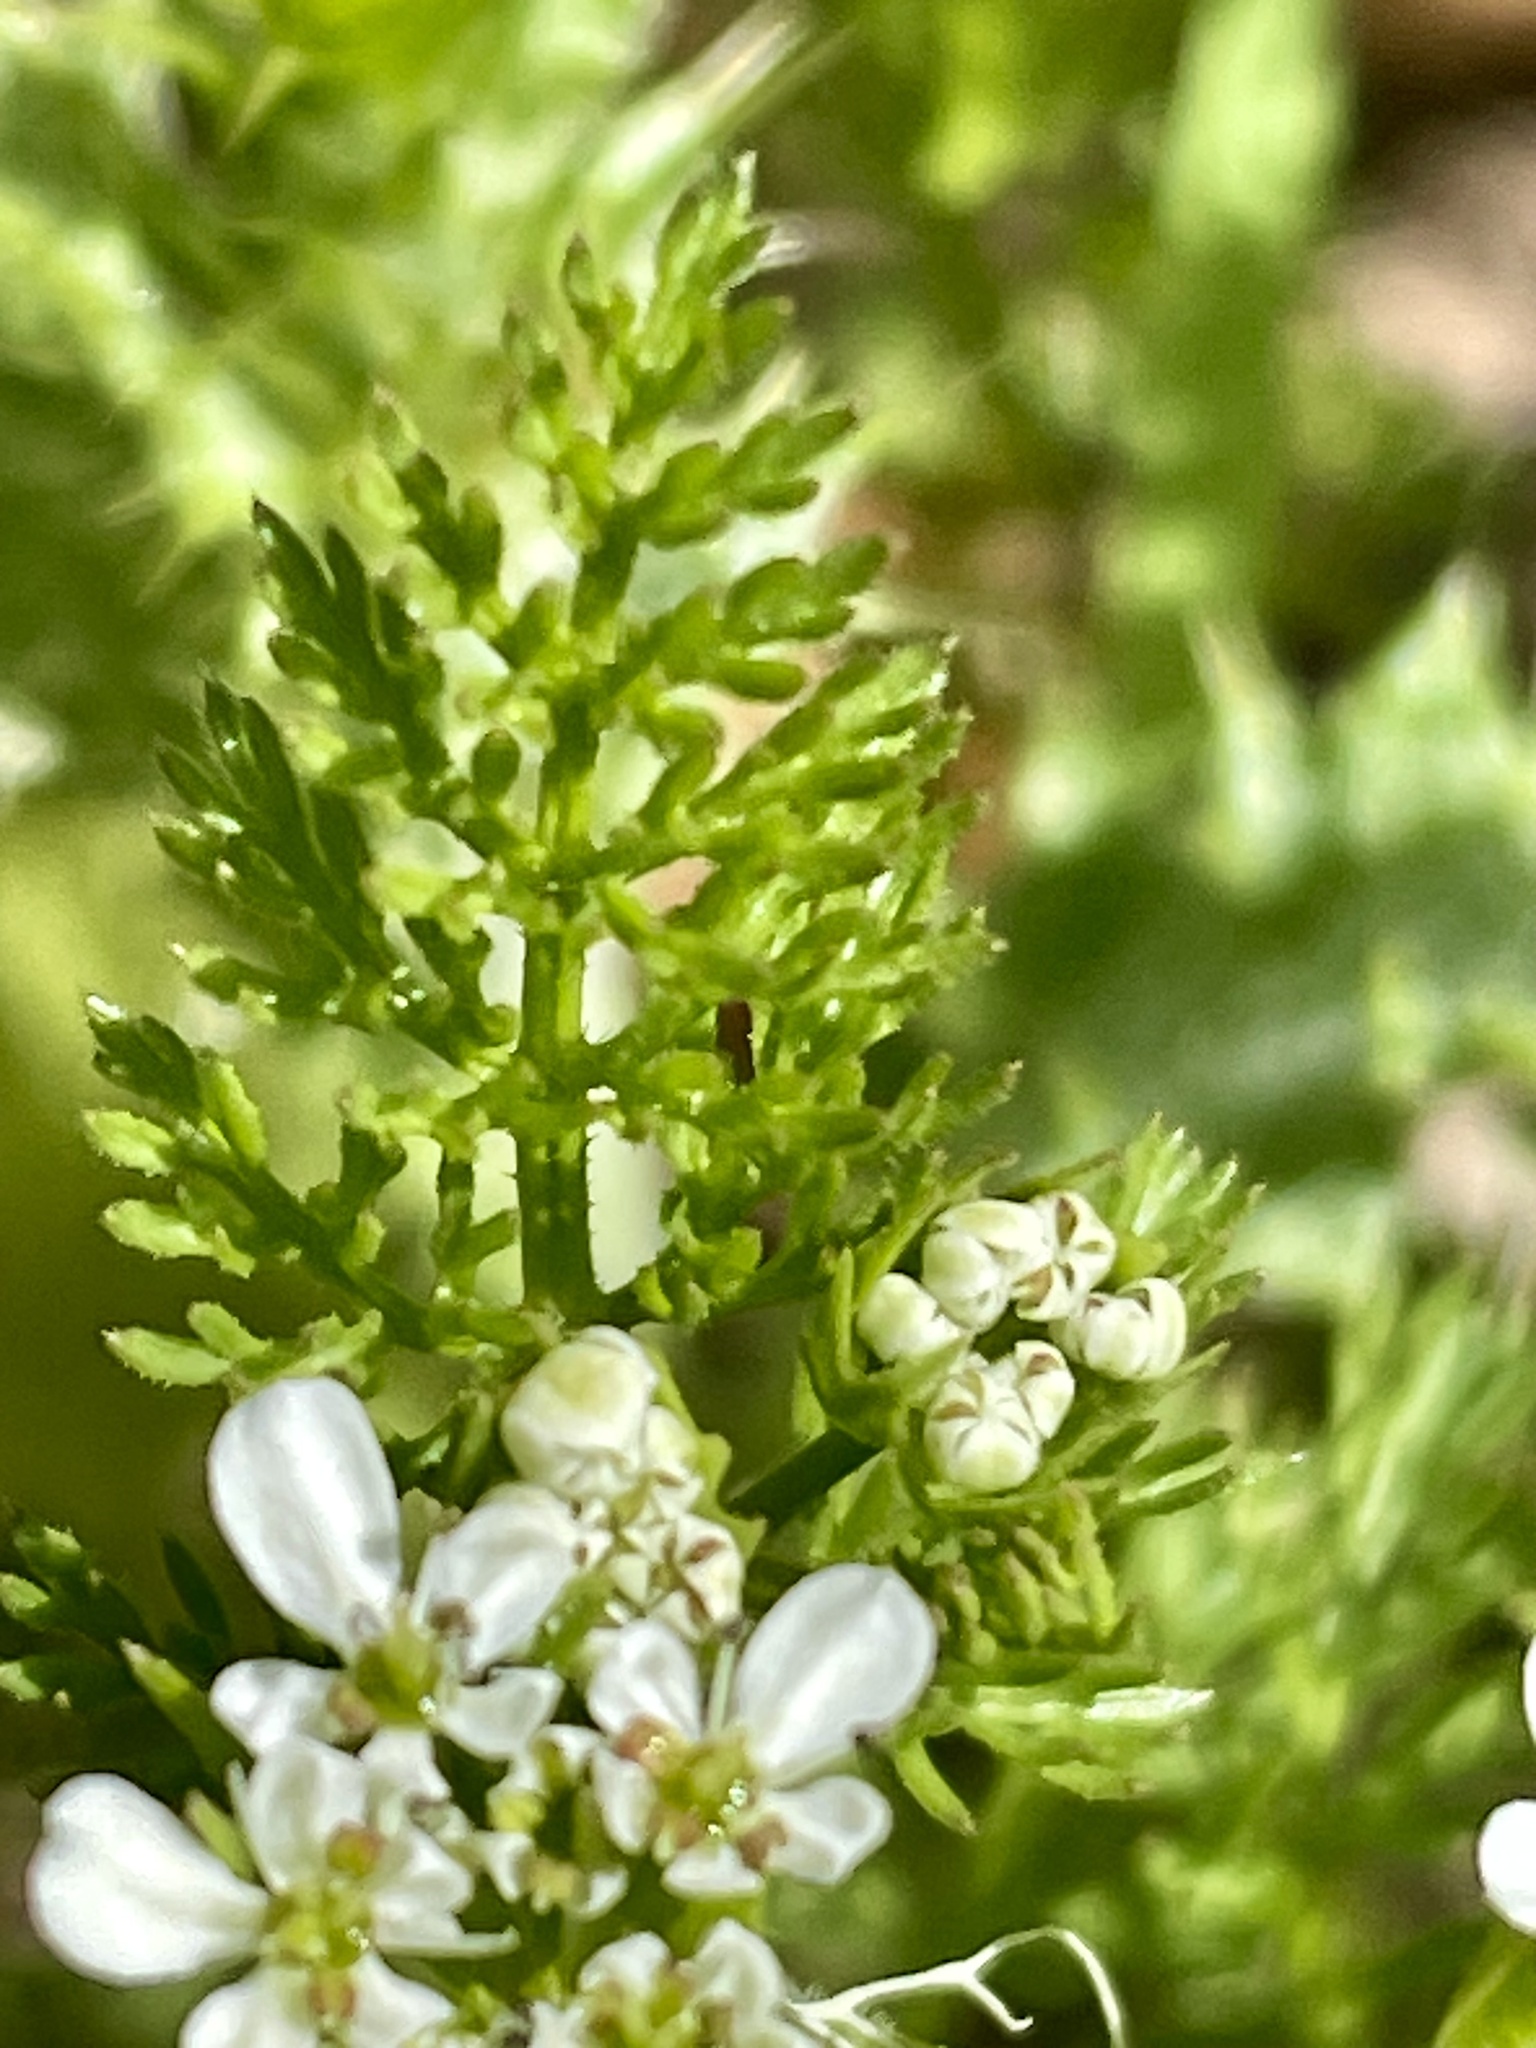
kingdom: Plantae
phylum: Tracheophyta
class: Magnoliopsida
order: Apiales
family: Apiaceae
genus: Scandix
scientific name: Scandix pecten-veneris
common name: Shepherd's-needle
